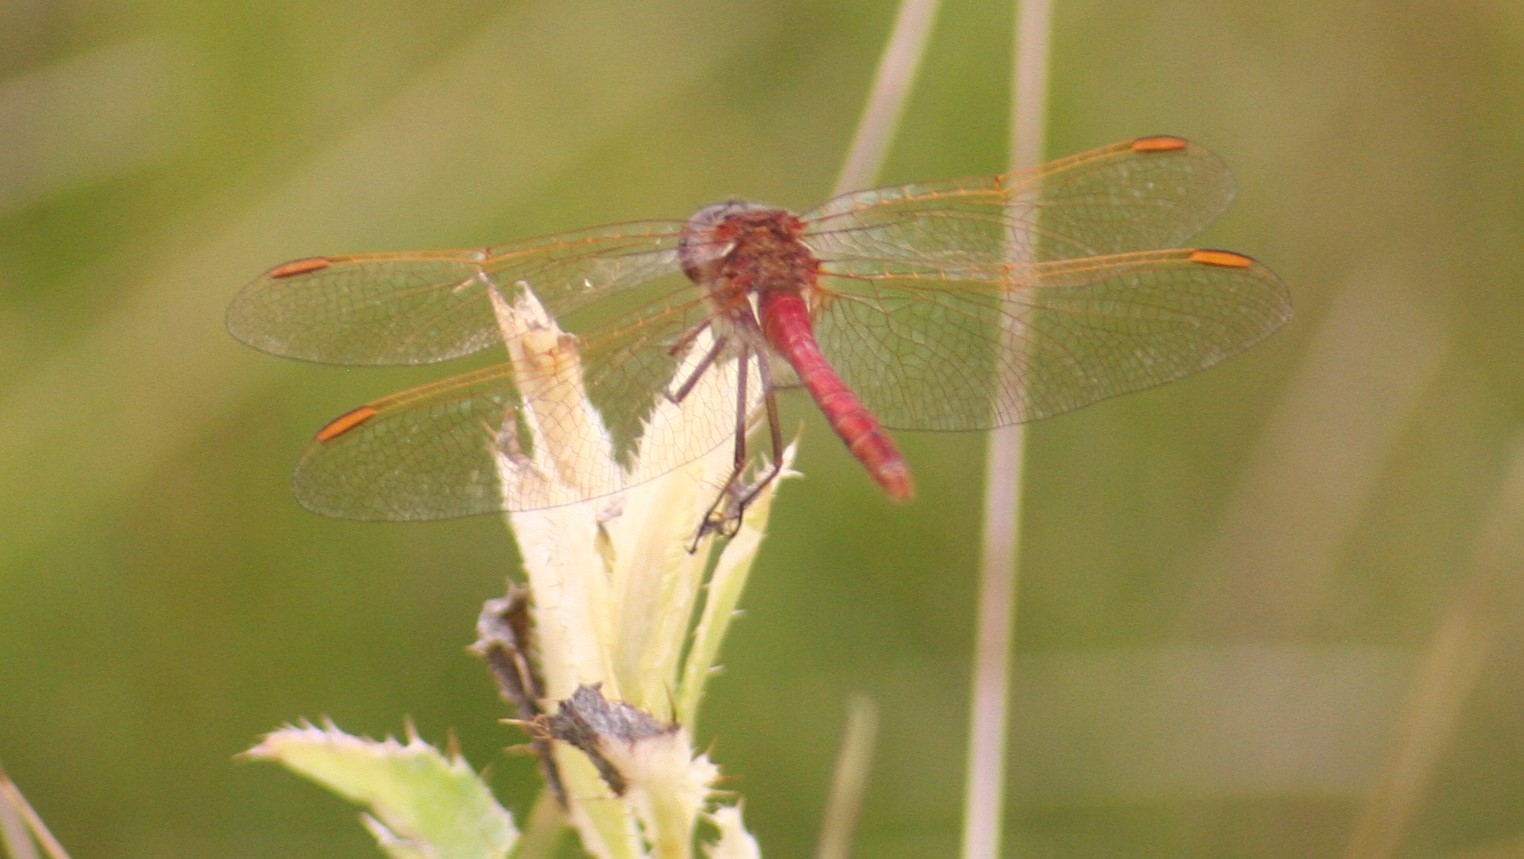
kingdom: Animalia
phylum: Arthropoda
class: Insecta
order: Odonata
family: Libellulidae
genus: Sympetrum
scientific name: Sympetrum costiferum
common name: Saffron-winged meadowhawk
